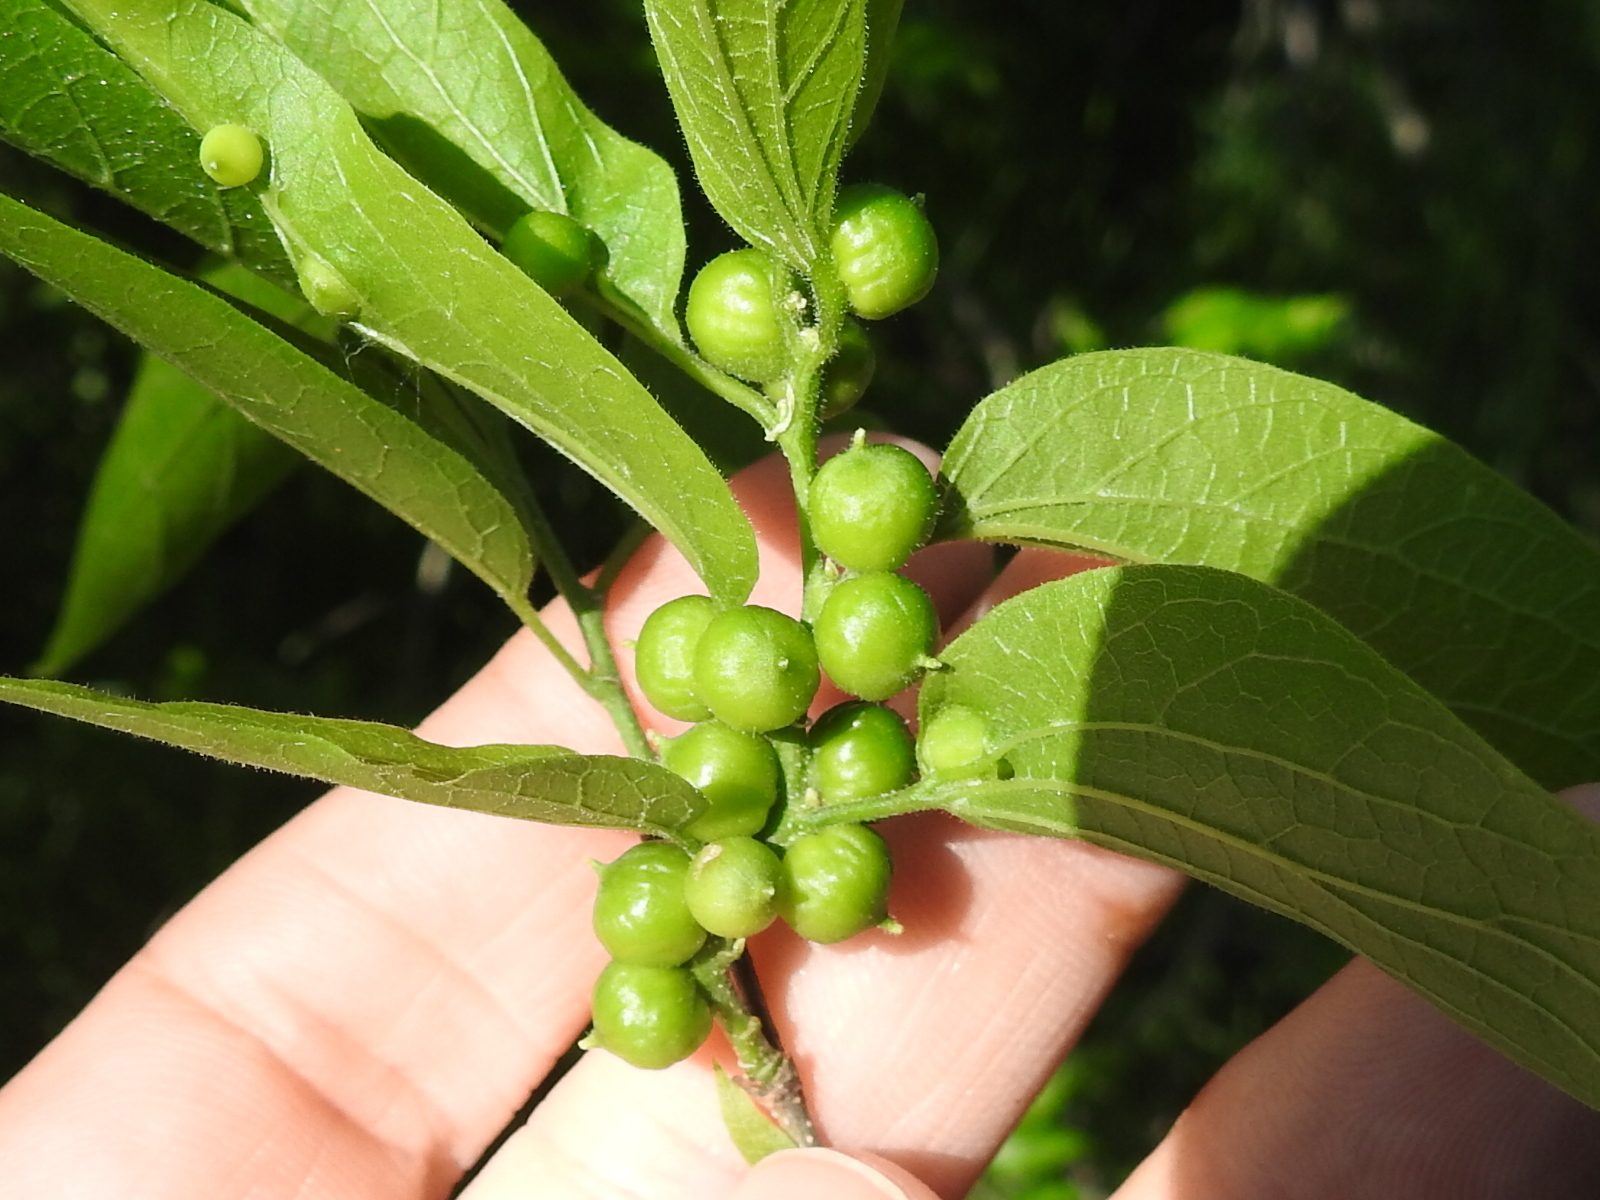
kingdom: Animalia
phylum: Arthropoda
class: Insecta
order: Diptera
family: Cecidomyiidae
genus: Celticecis
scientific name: Celticecis connata
